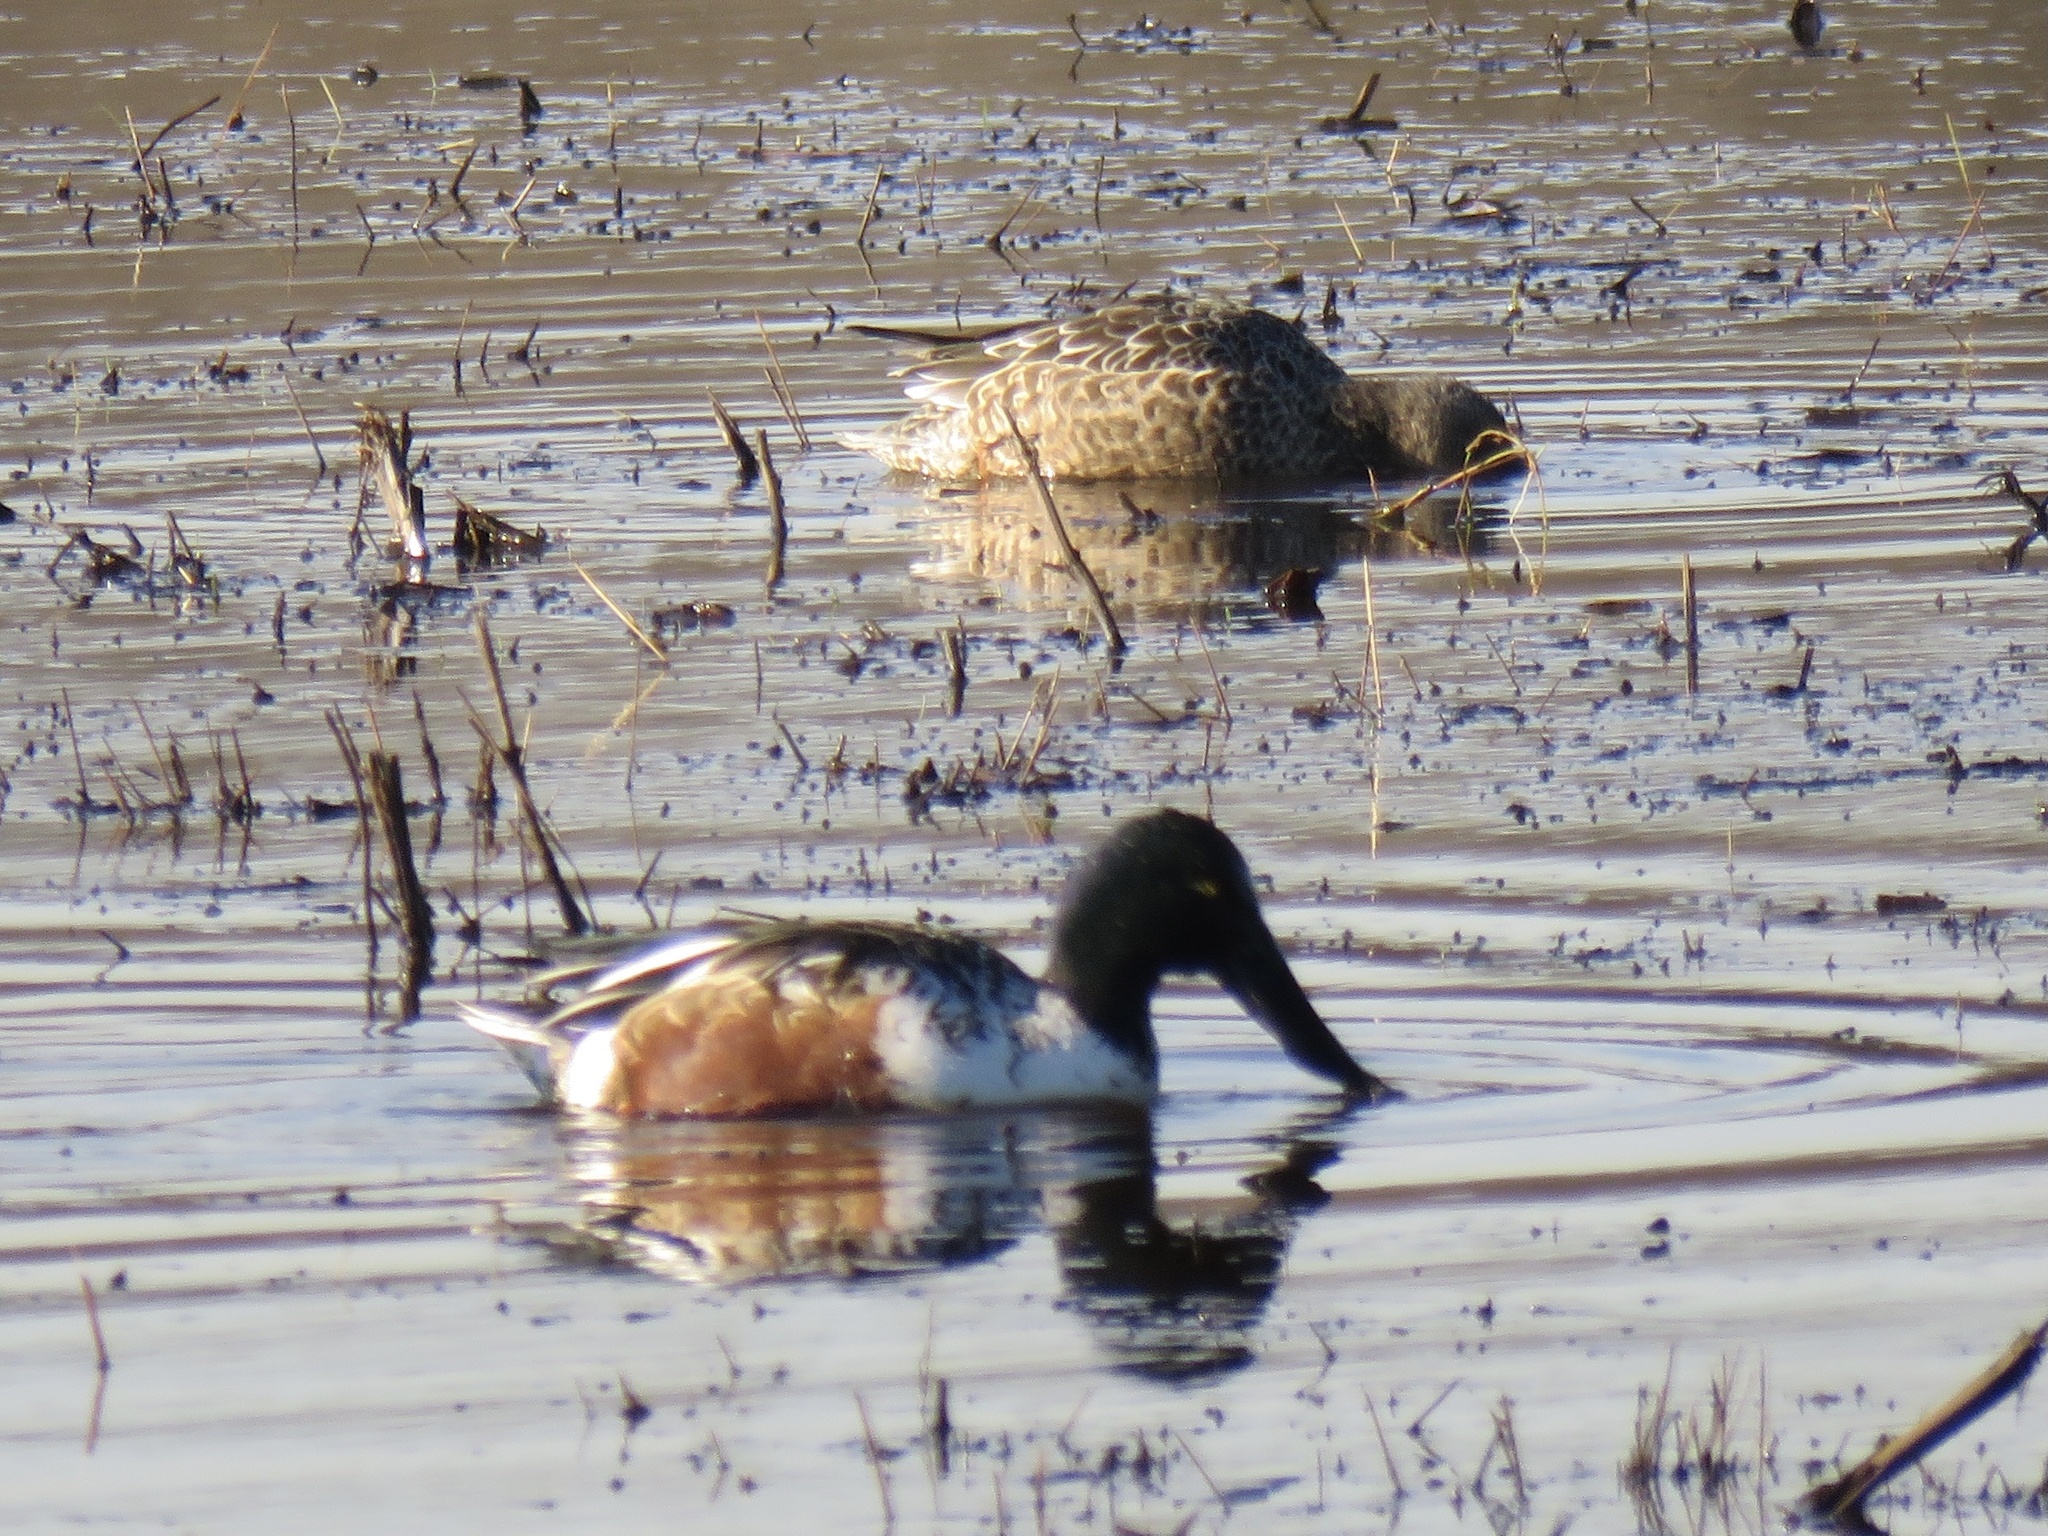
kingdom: Animalia
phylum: Chordata
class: Aves
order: Anseriformes
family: Anatidae
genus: Spatula
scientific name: Spatula clypeata
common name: Northern shoveler
